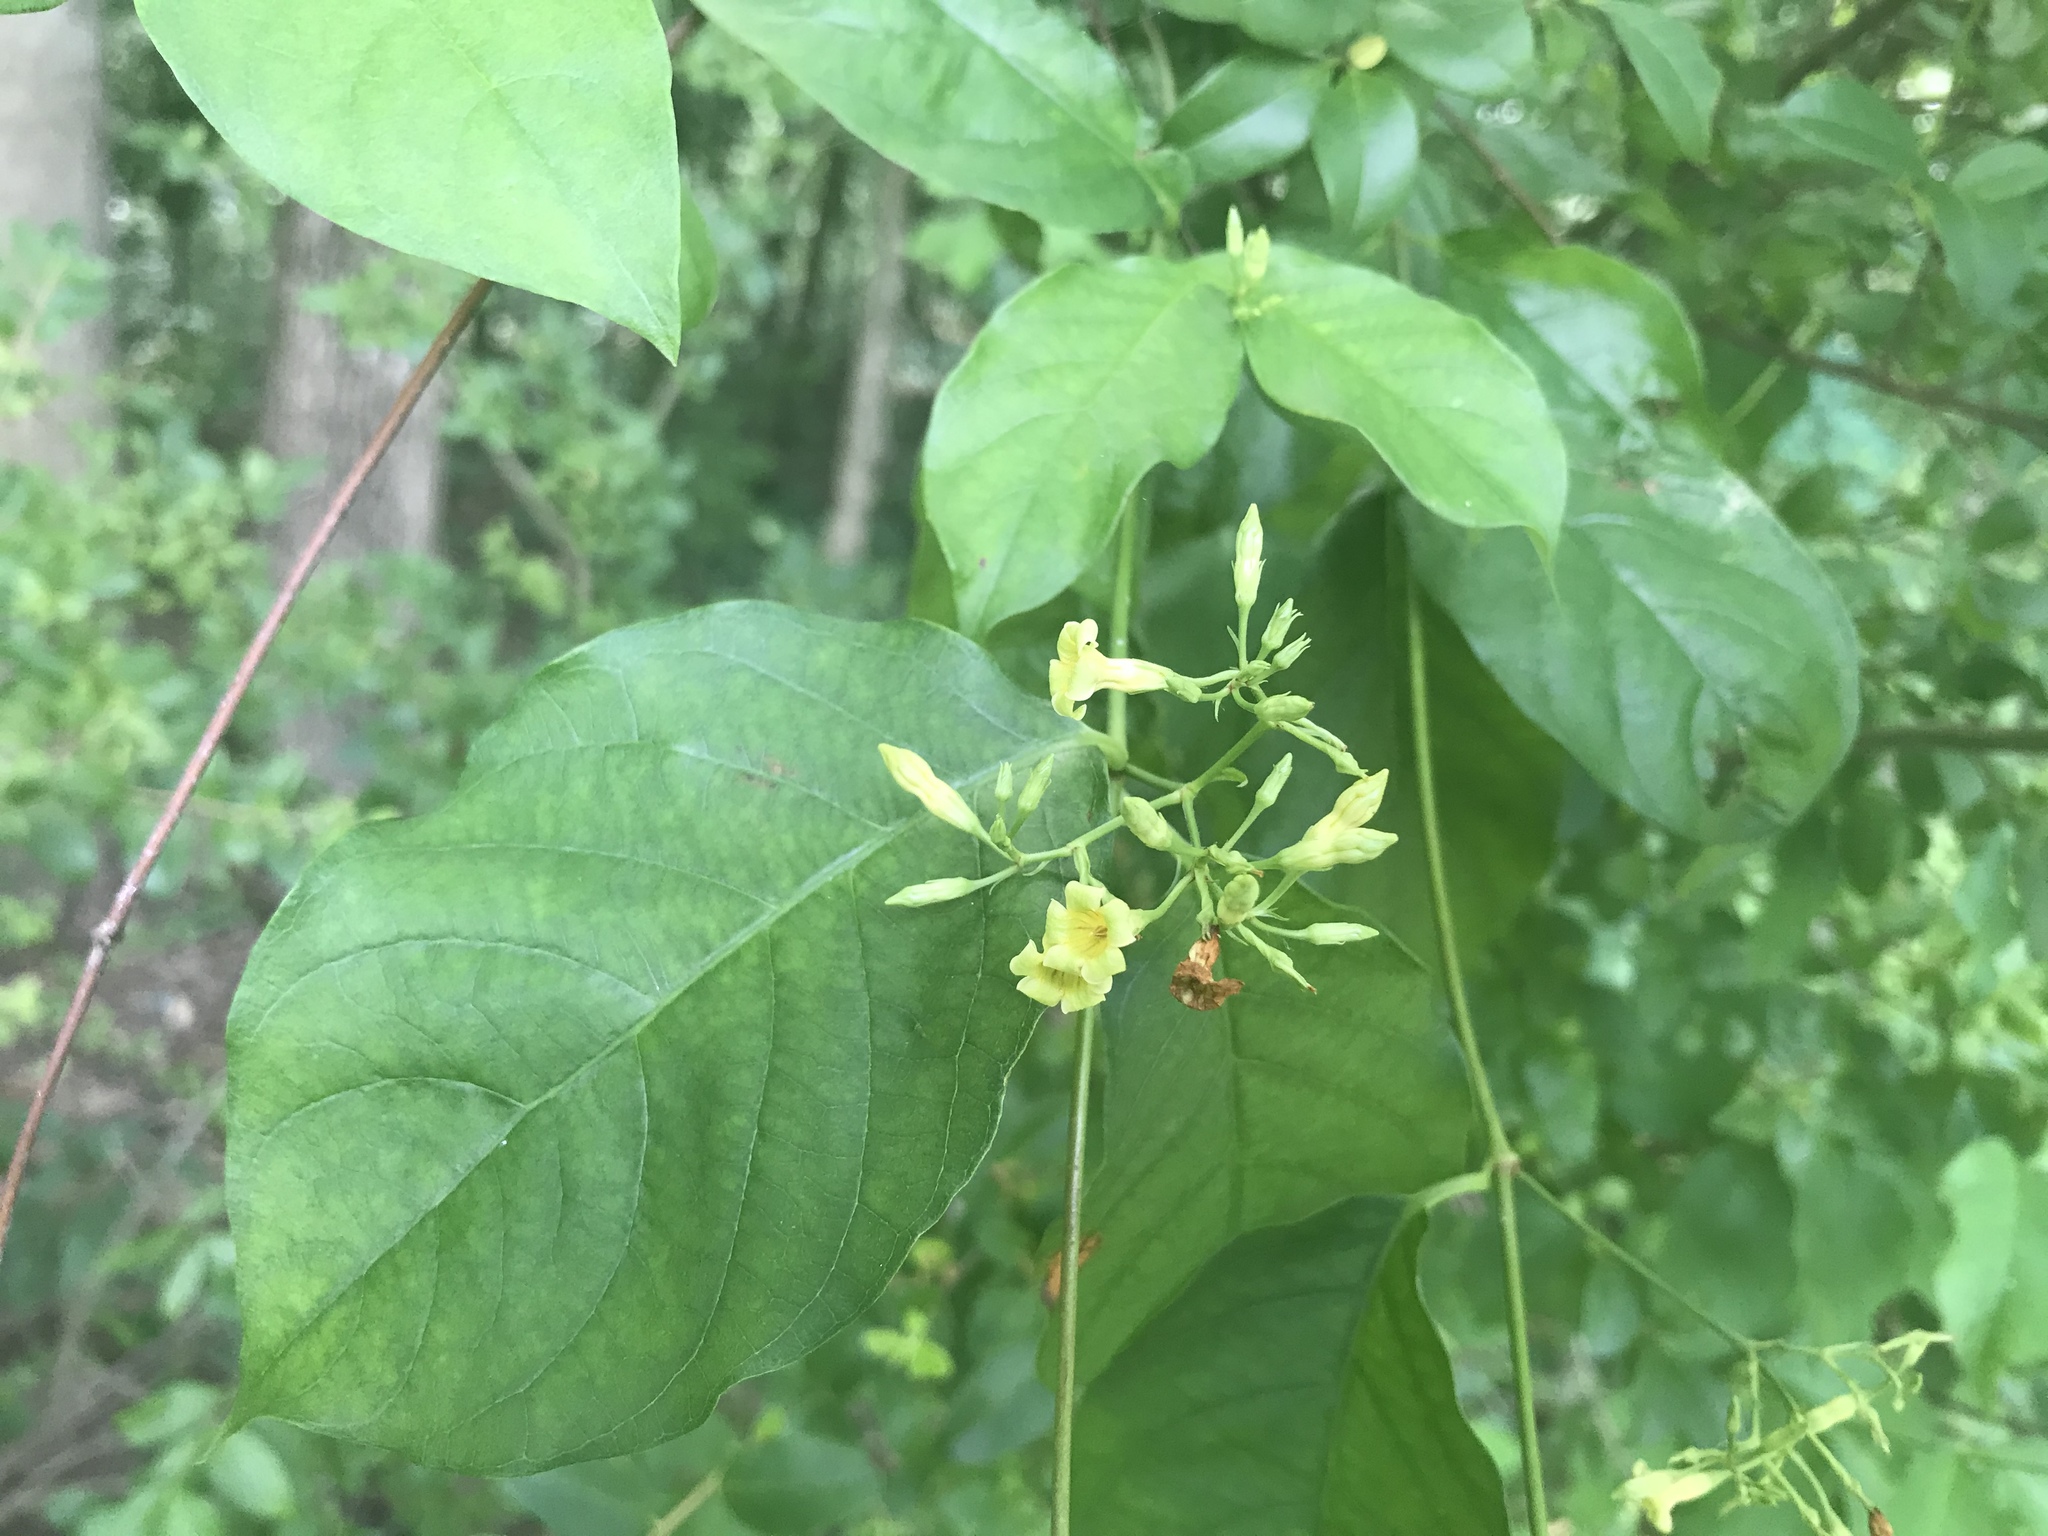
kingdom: Plantae
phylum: Tracheophyta
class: Magnoliopsida
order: Gentianales
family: Apocynaceae
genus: Thyrsanthella
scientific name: Thyrsanthella difformis
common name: Climbing dogbane
